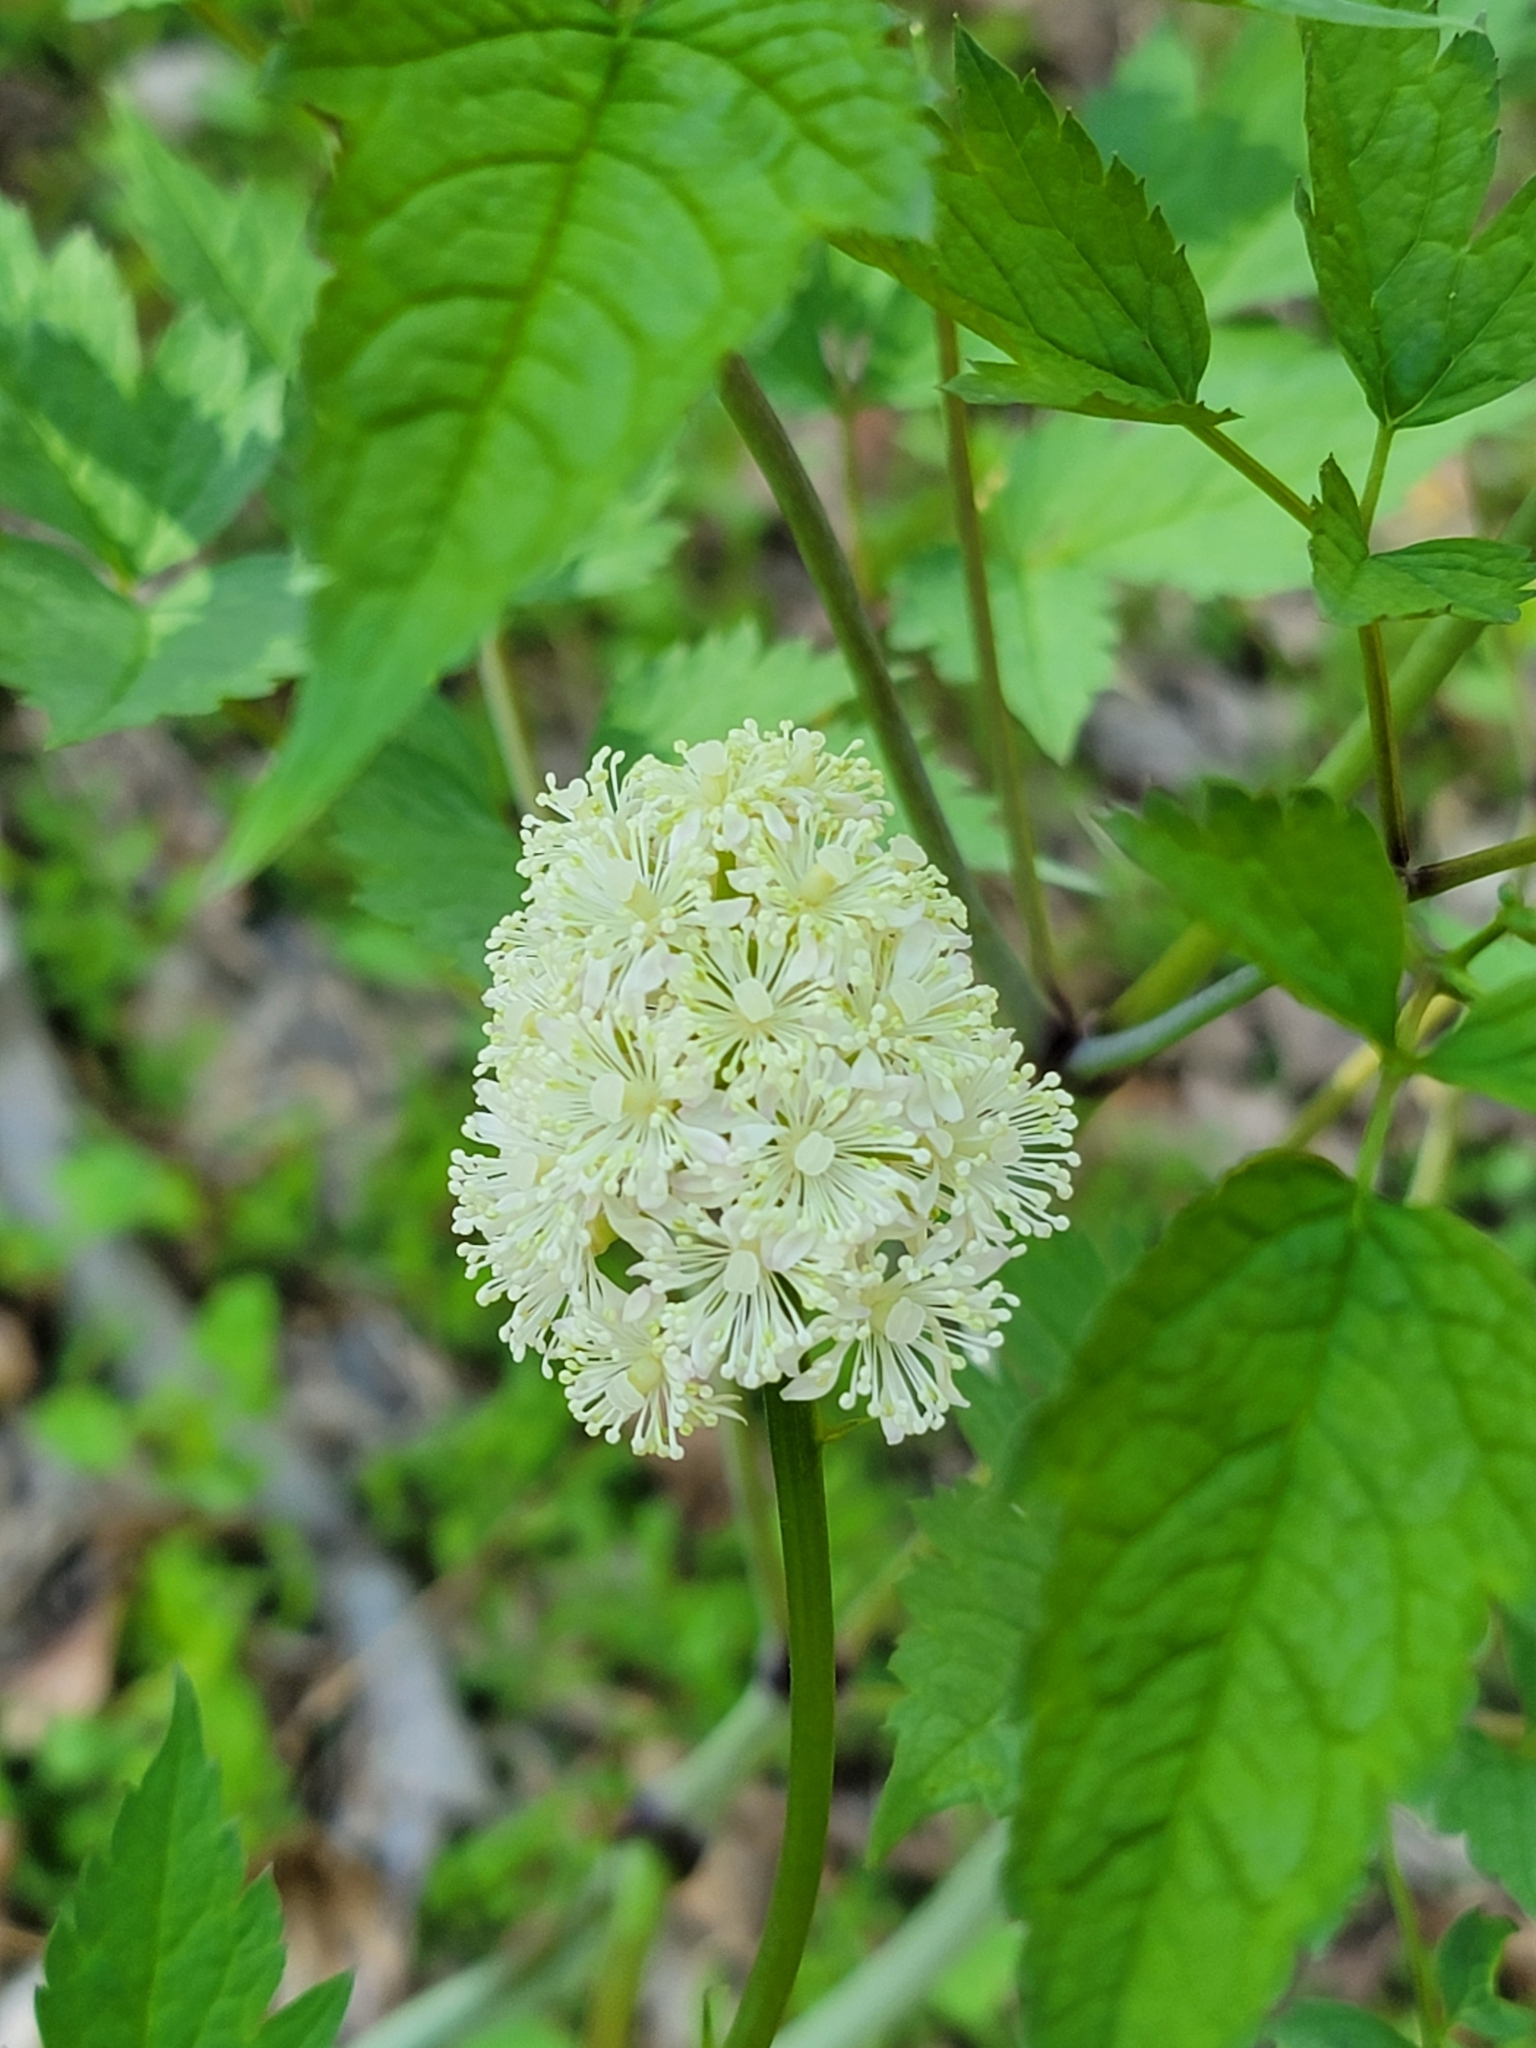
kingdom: Plantae
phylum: Tracheophyta
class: Magnoliopsida
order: Ranunculales
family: Ranunculaceae
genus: Actaea
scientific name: Actaea pachypoda
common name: Doll's-eyes
